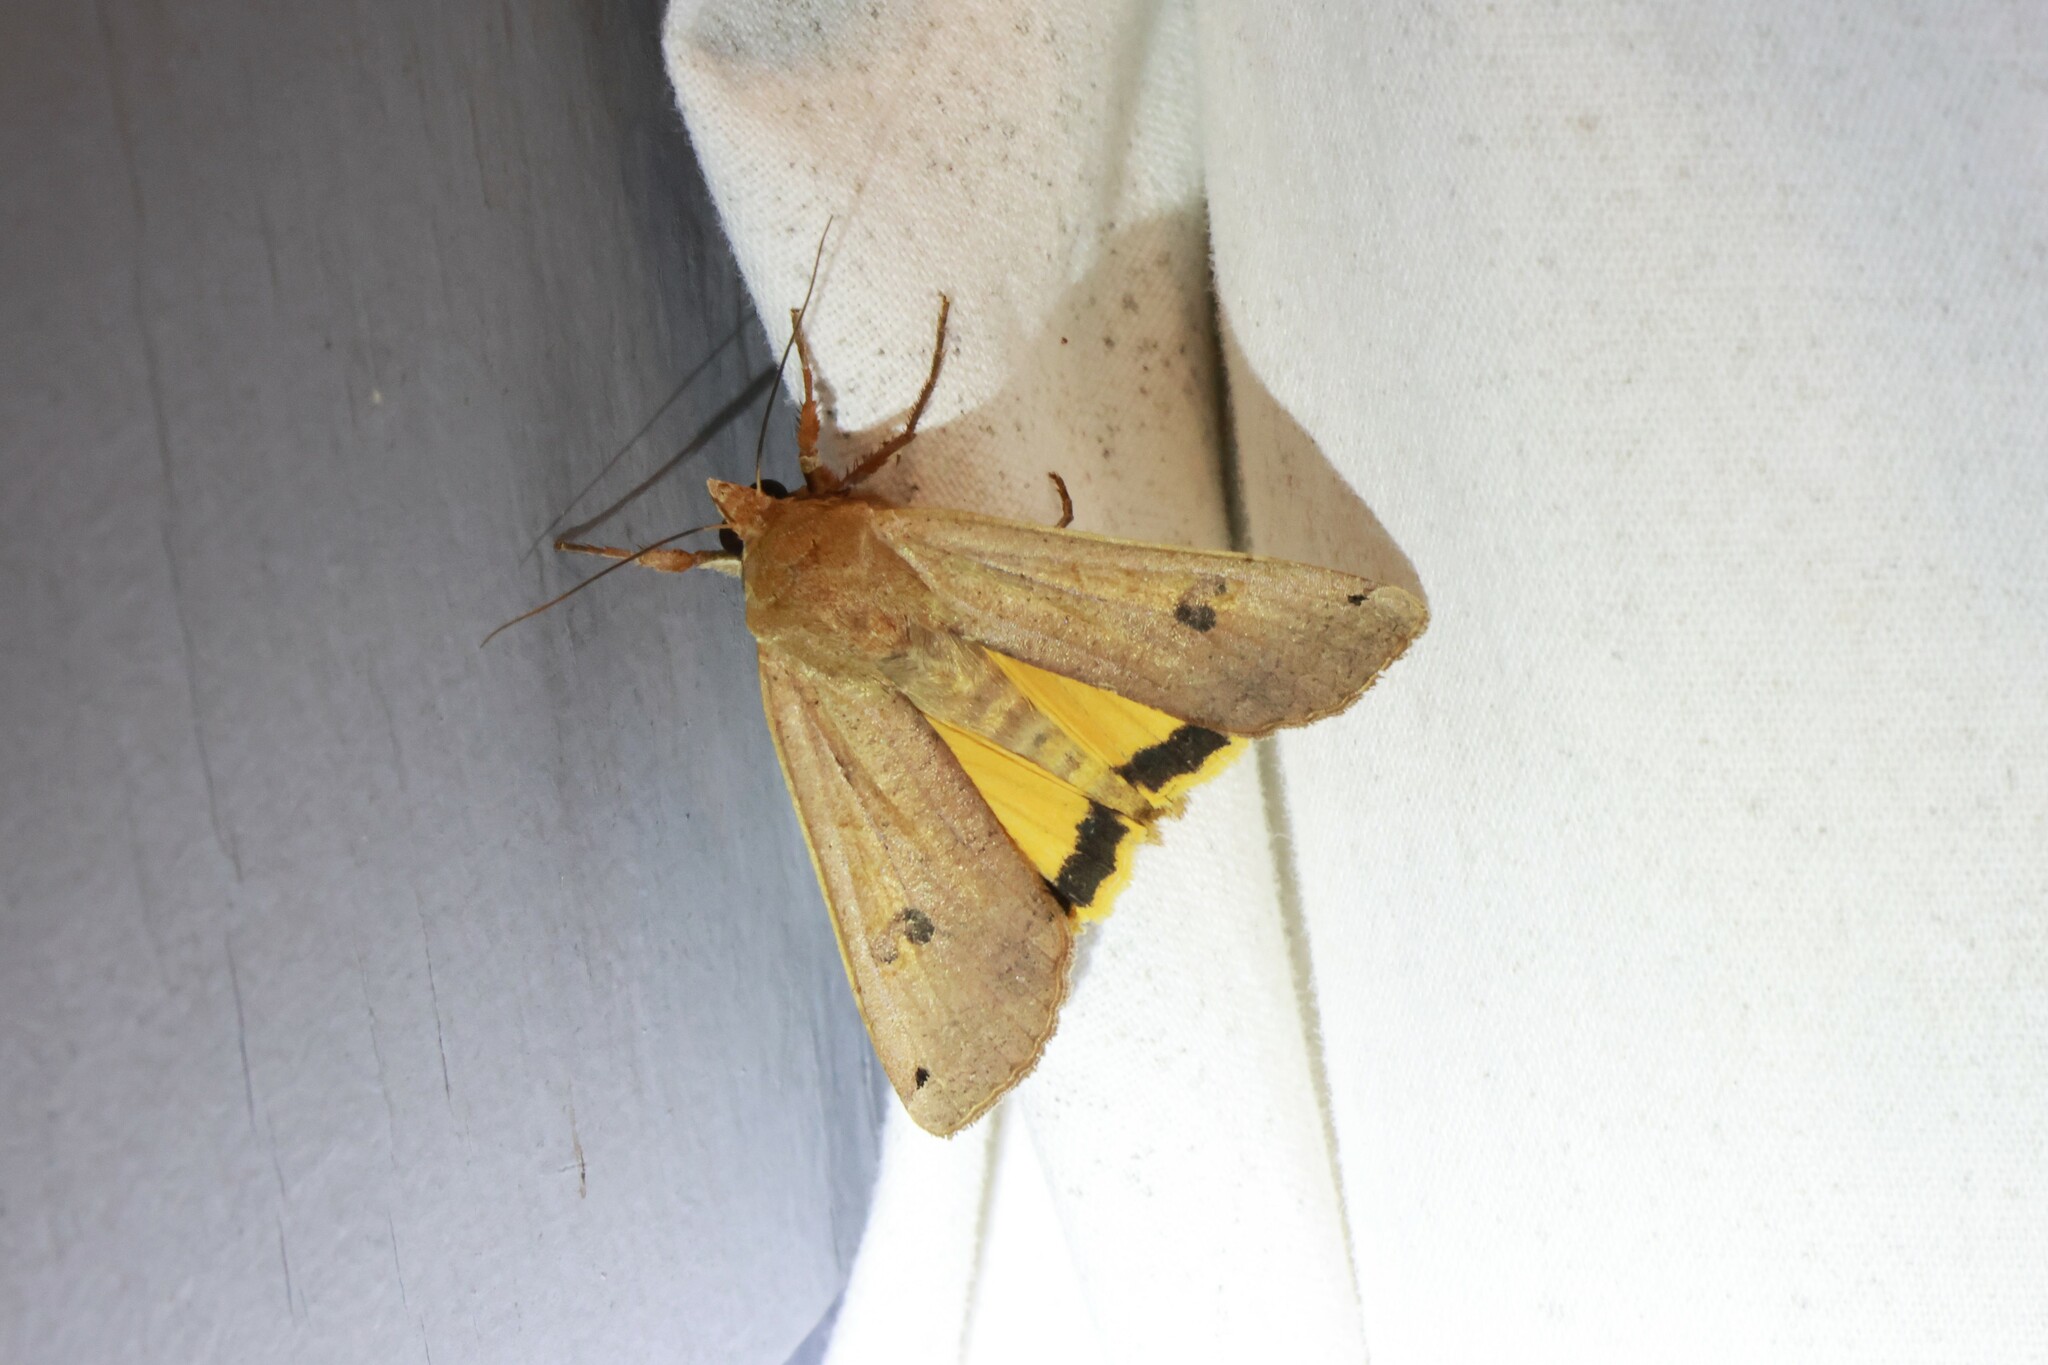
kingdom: Animalia
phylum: Arthropoda
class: Insecta
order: Lepidoptera
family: Noctuidae
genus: Noctua
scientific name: Noctua pronuba
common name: Large yellow underwing
